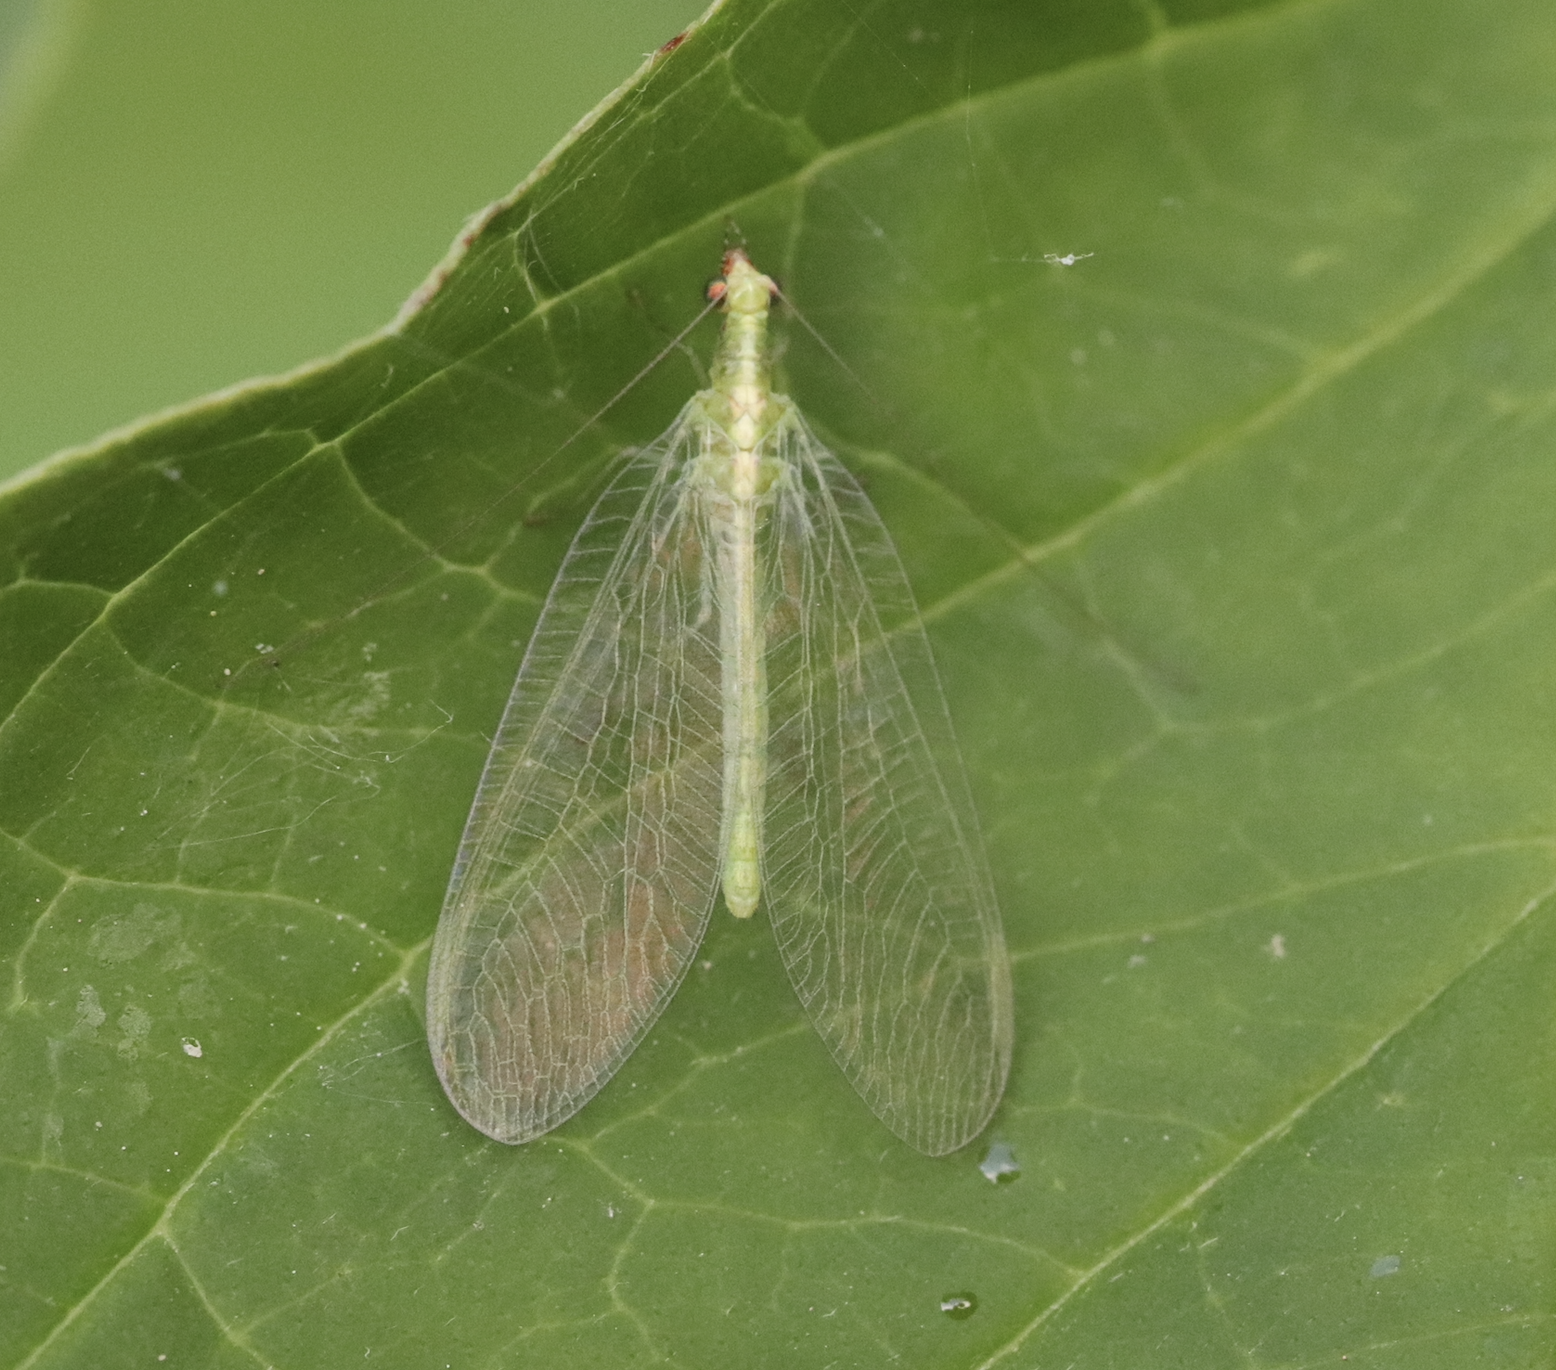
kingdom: Animalia
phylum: Arthropoda
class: Insecta
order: Neuroptera
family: Chrysopidae
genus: Chrysoperla
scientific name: Chrysoperla
